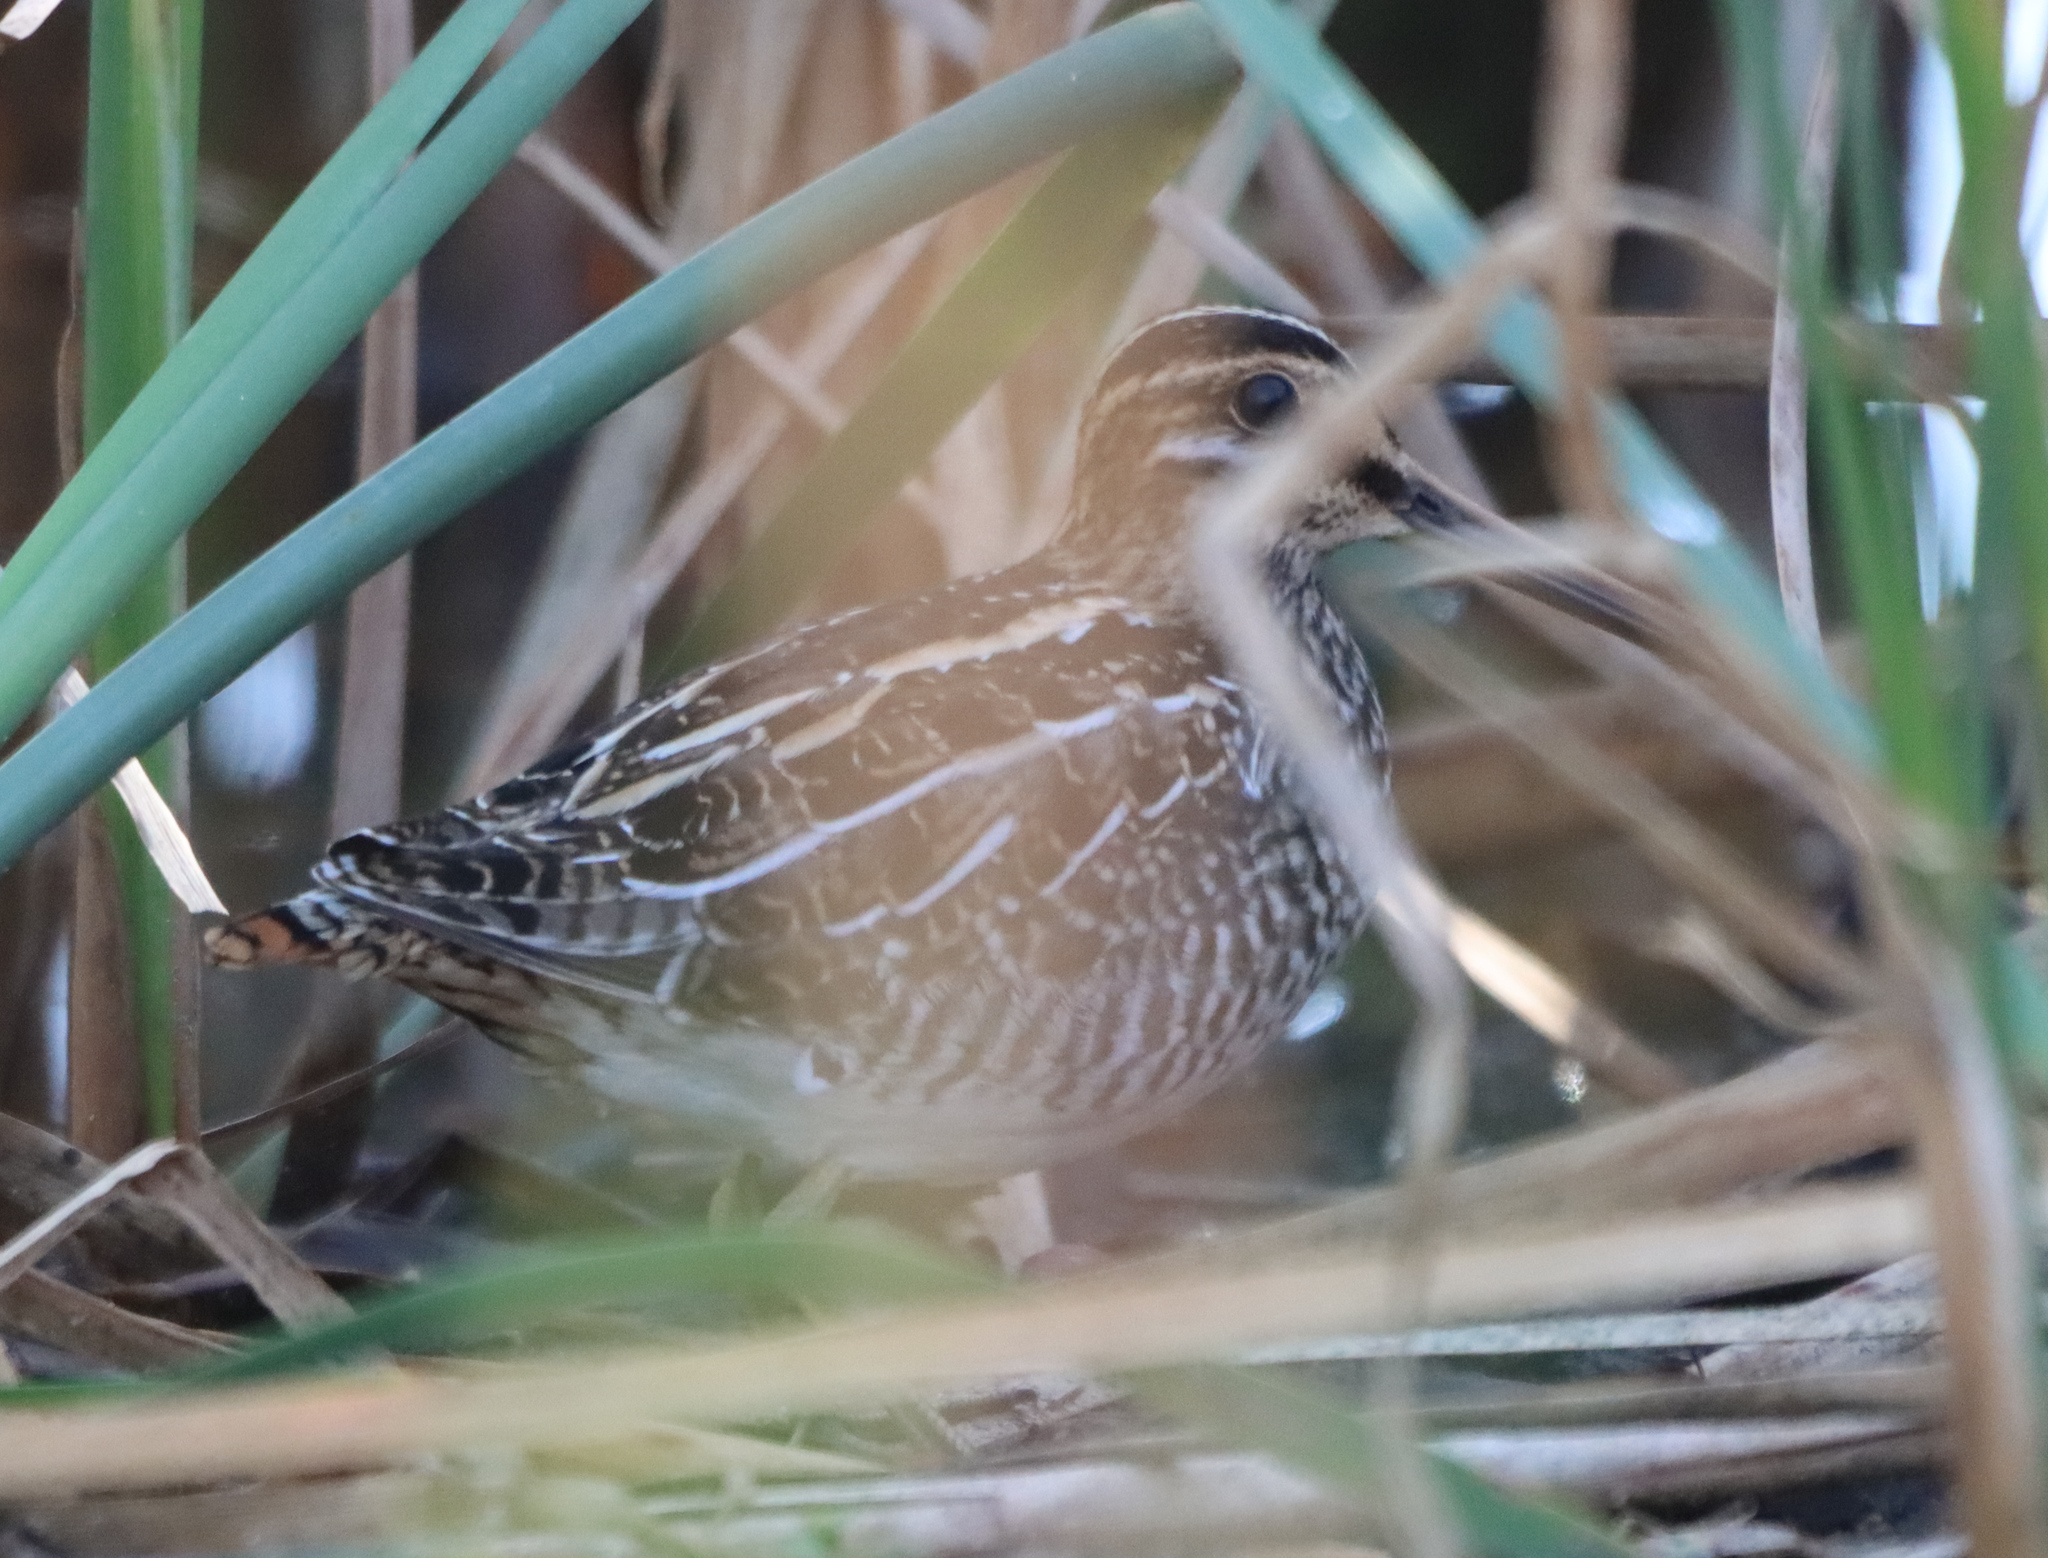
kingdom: Animalia
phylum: Chordata
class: Aves
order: Charadriiformes
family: Scolopacidae
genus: Gallinago
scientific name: Gallinago delicata
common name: Wilson's snipe
